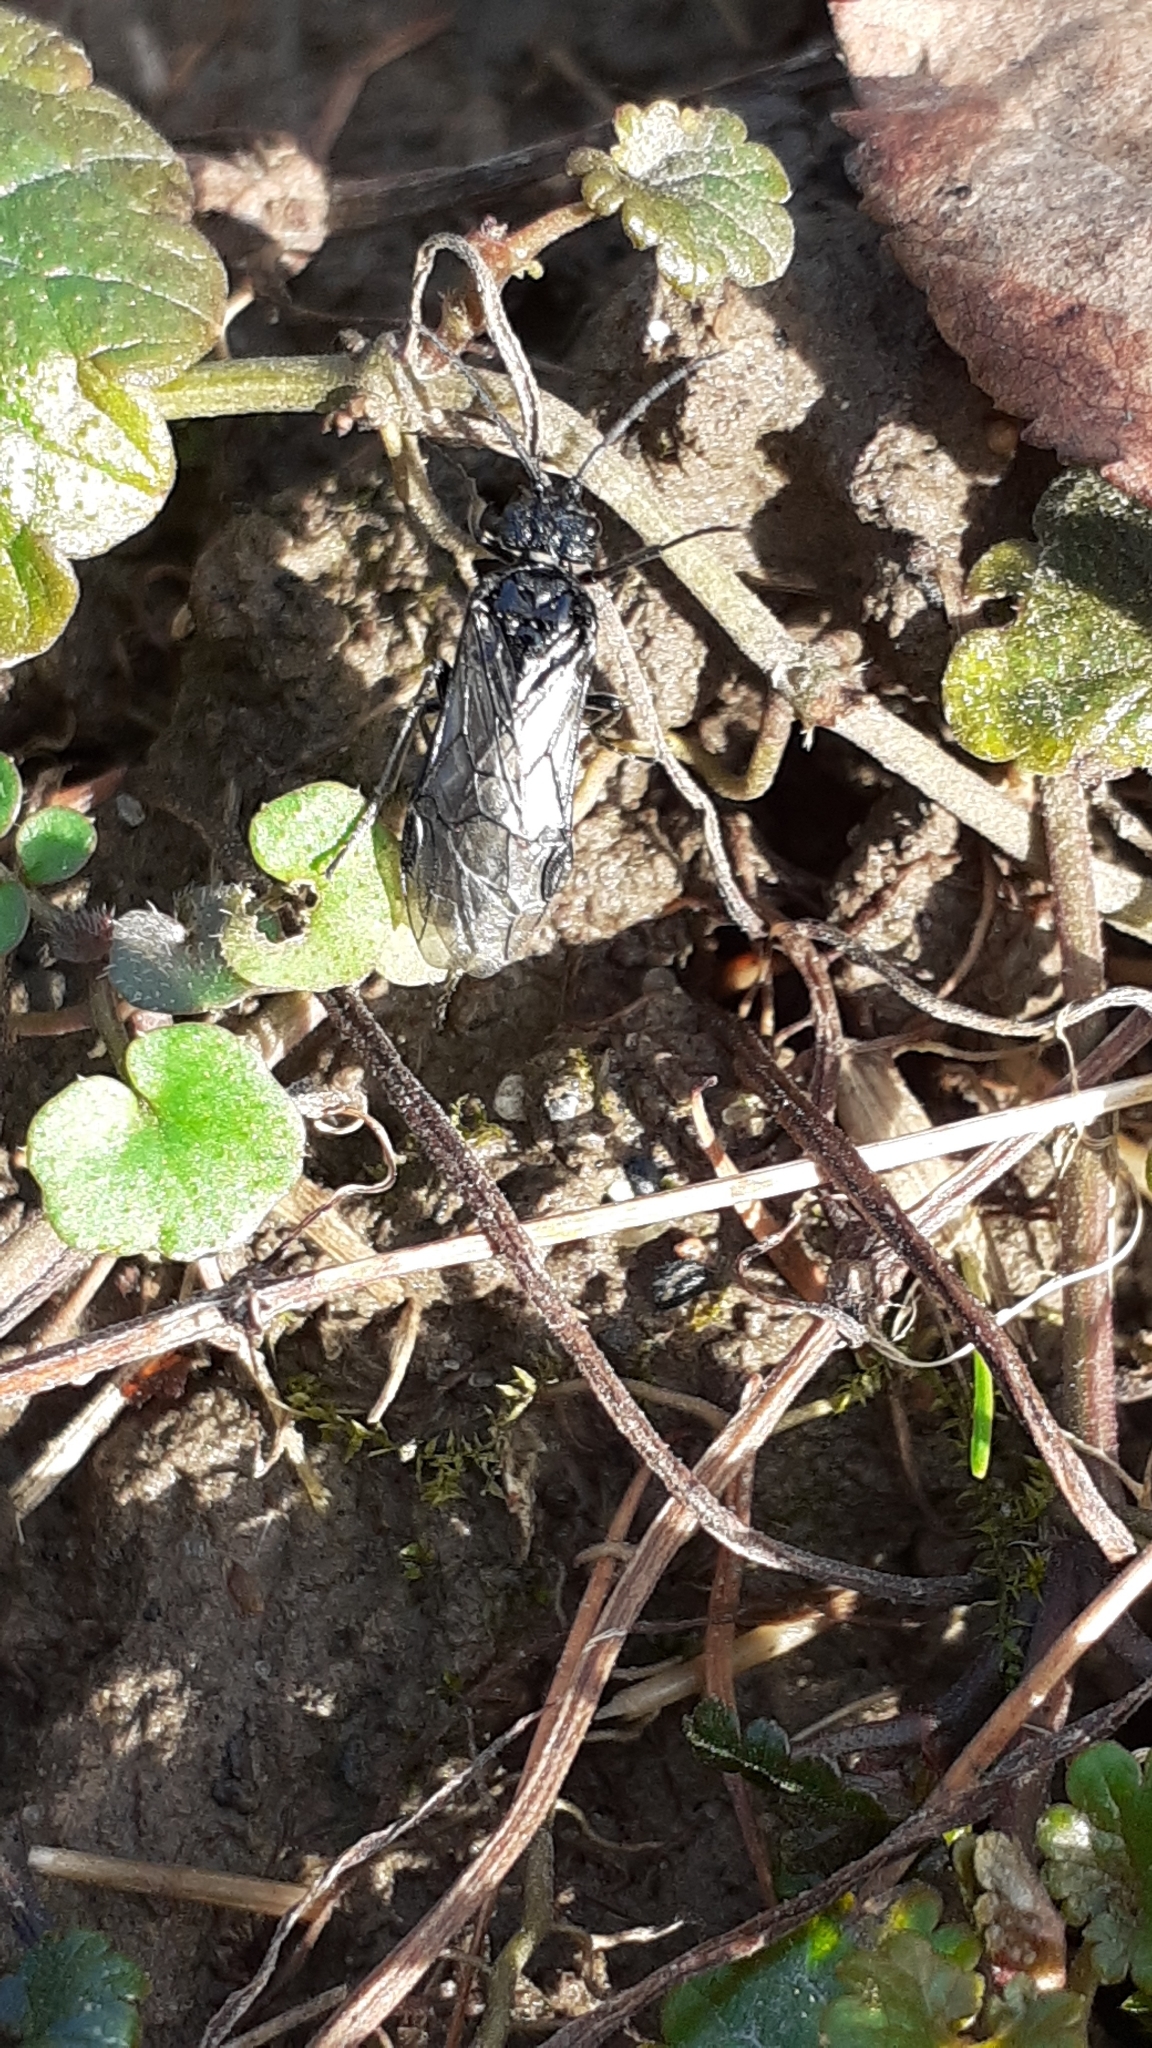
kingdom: Animalia
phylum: Arthropoda
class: Insecta
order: Hymenoptera
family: Tenthredinidae
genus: Dolerus
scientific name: Dolerus
